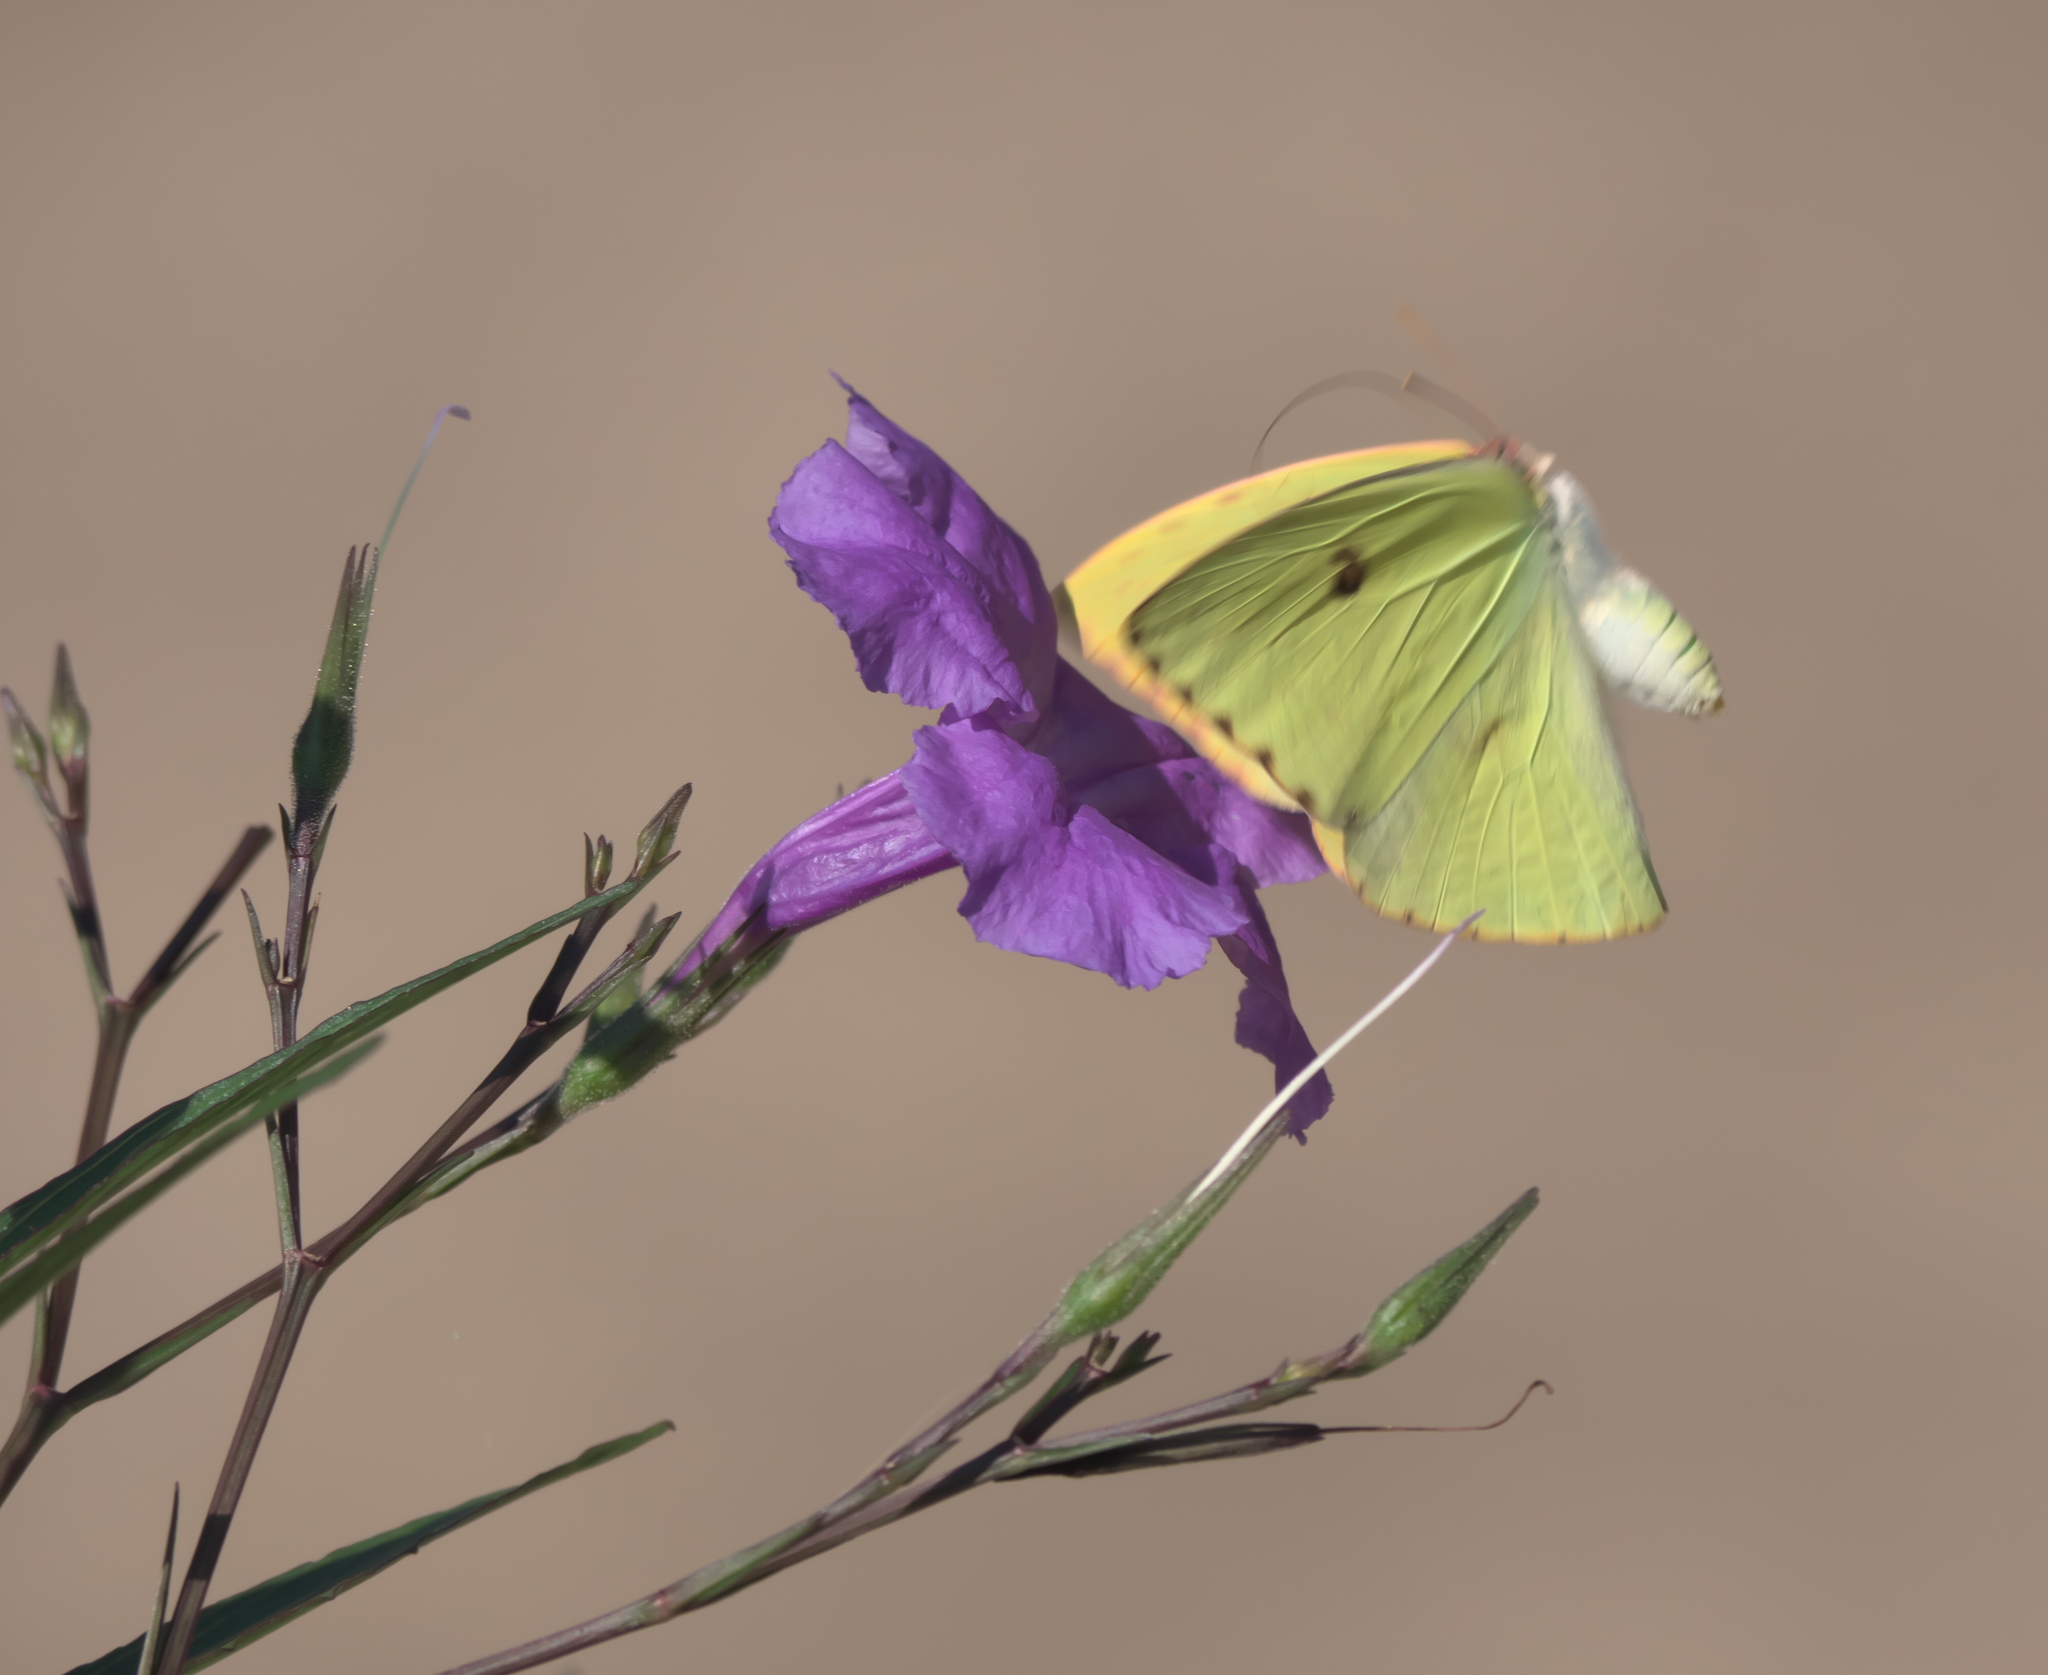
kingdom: Animalia
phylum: Arthropoda
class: Insecta
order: Lepidoptera
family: Pieridae
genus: Phoebis
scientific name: Phoebis sennae
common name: Cloudless sulphur
